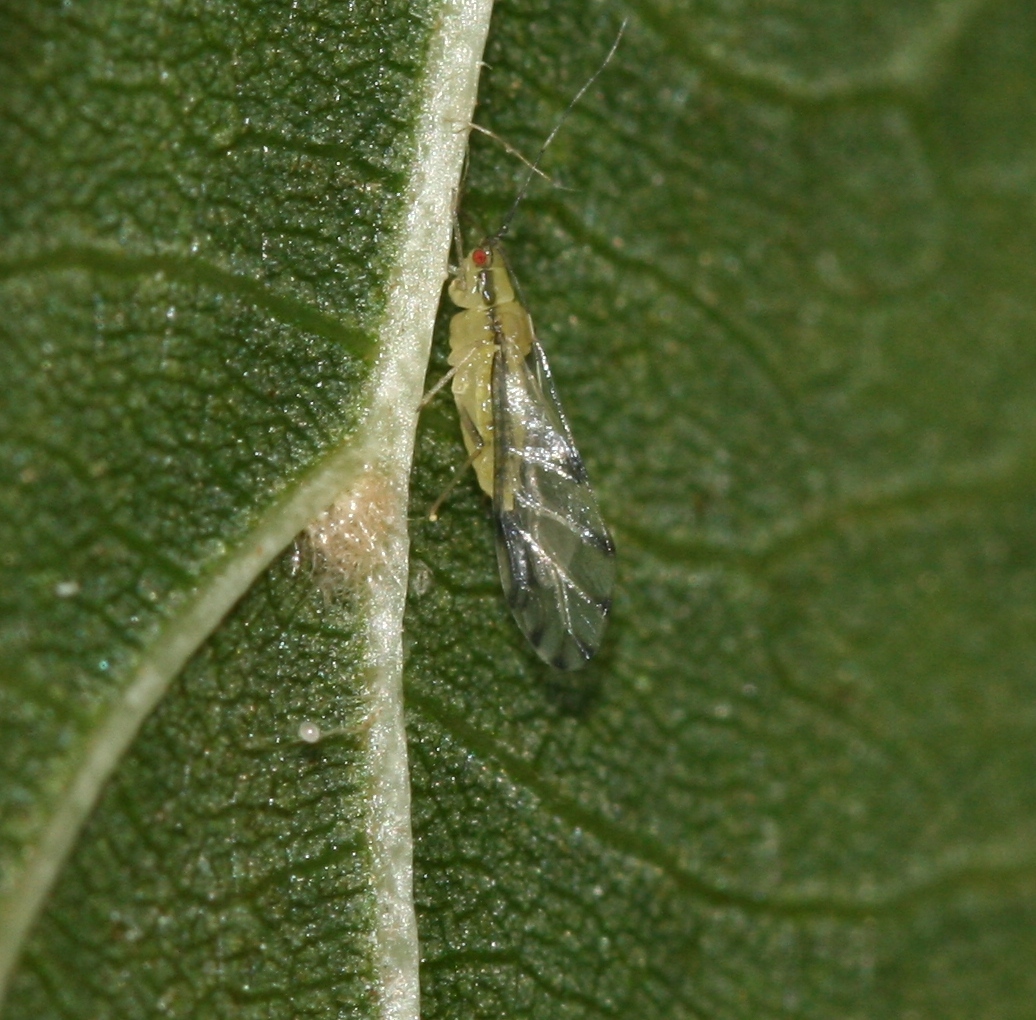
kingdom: Animalia
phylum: Arthropoda
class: Insecta
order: Hemiptera
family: Aphididae
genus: Eucallipterus
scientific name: Eucallipterus tiliae
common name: Aphid
